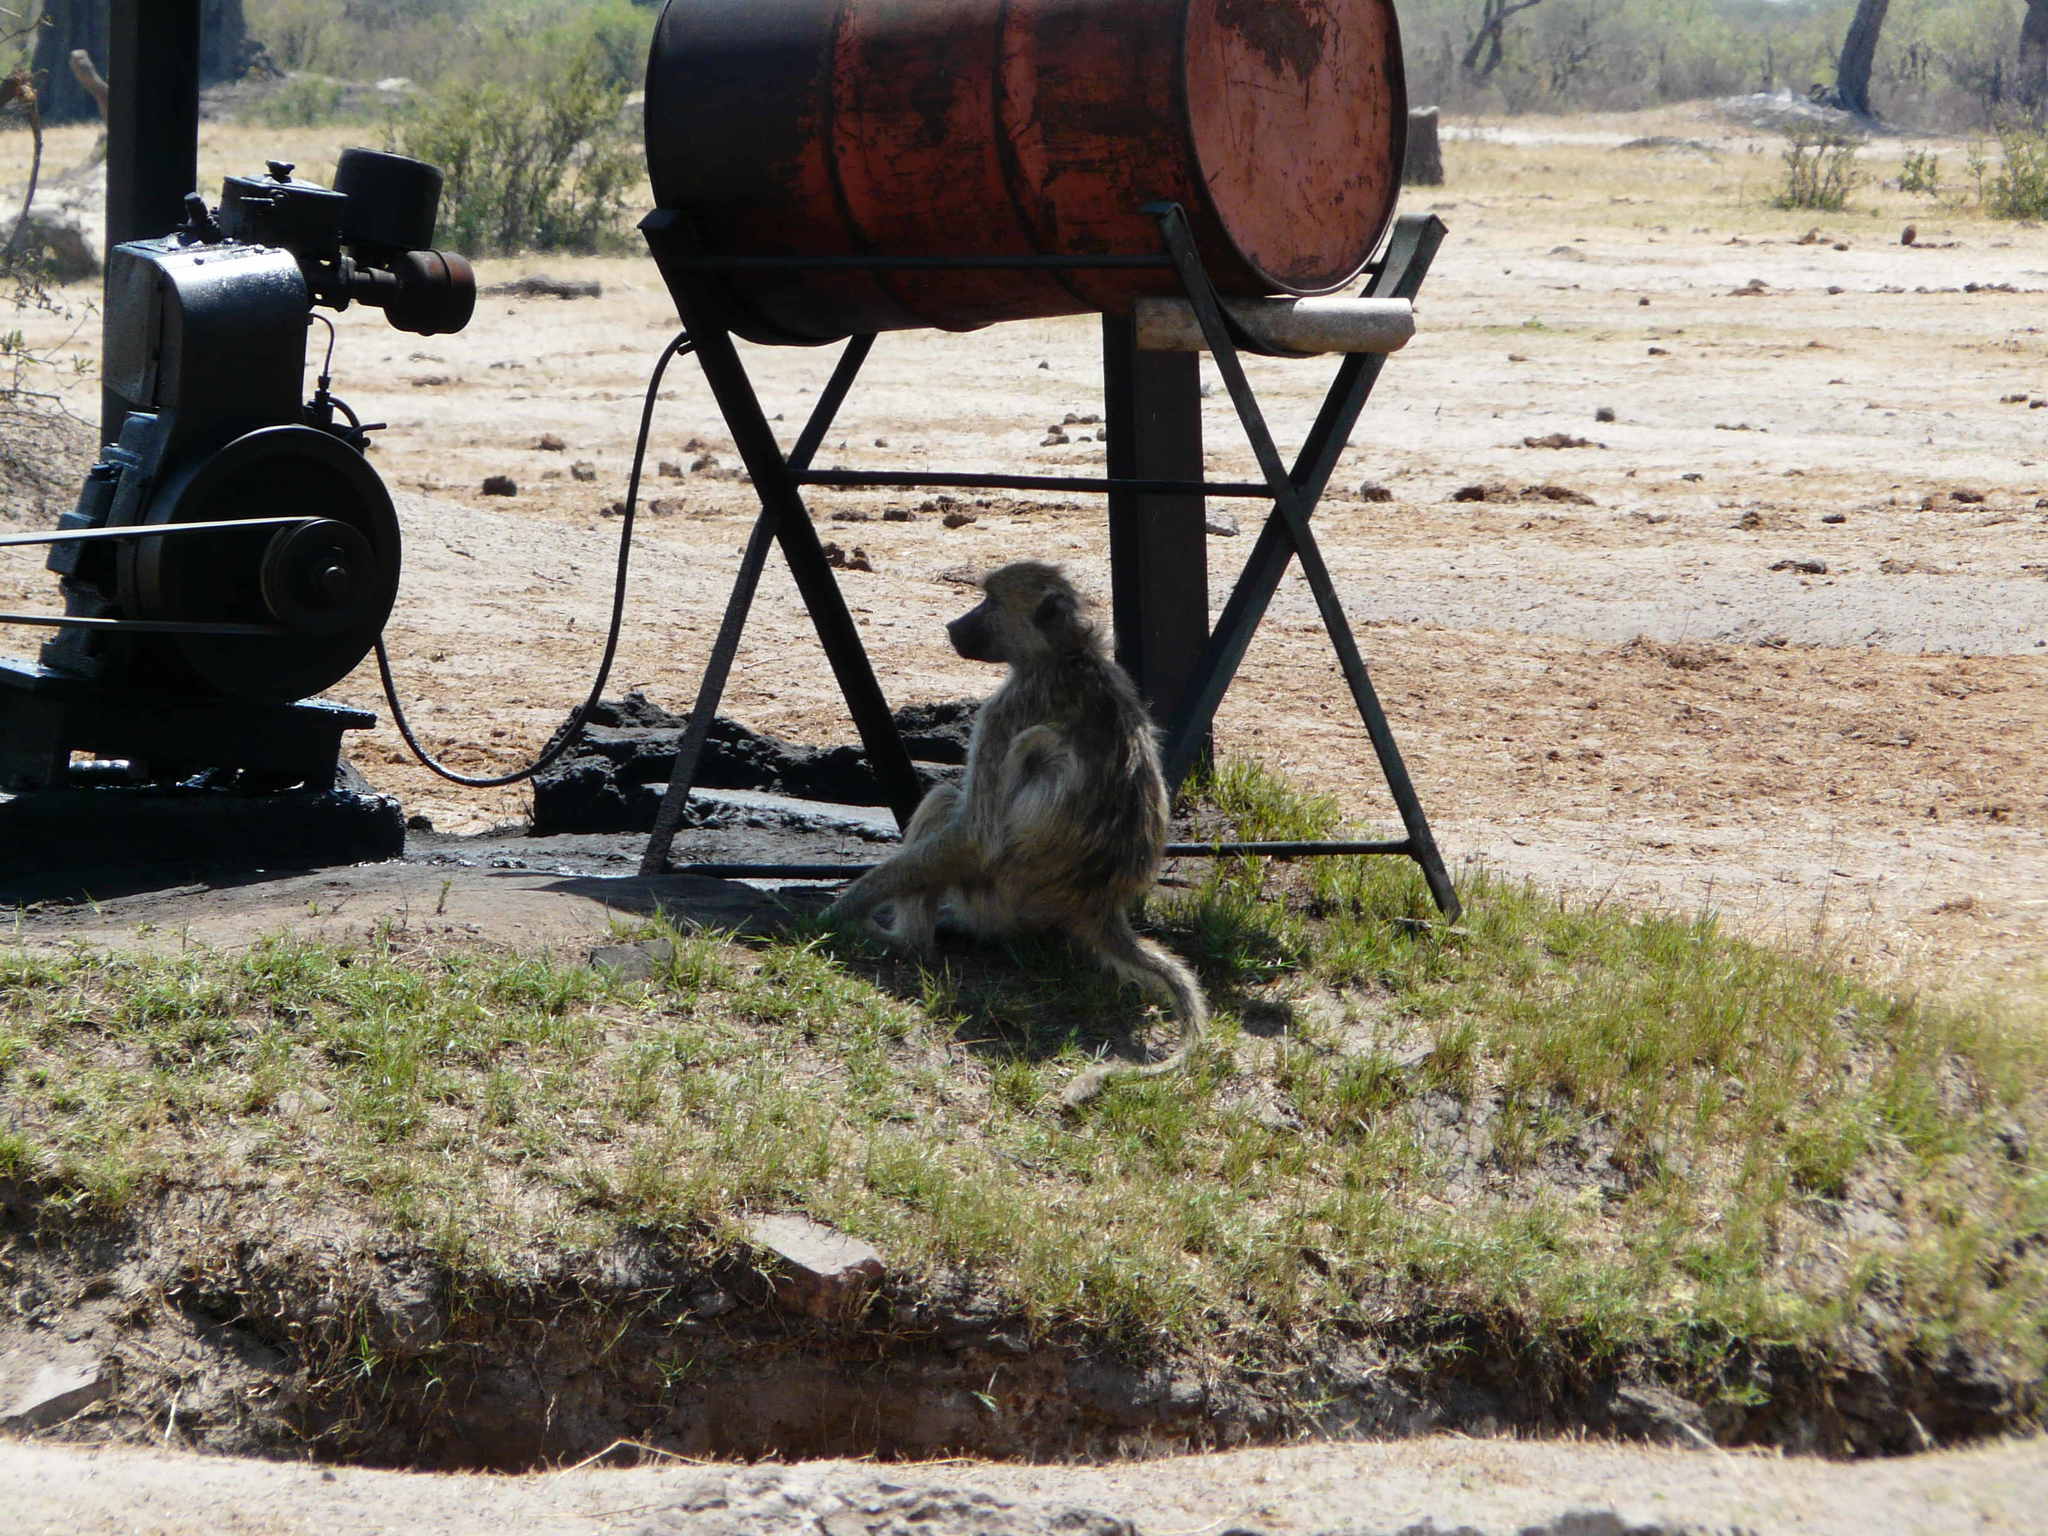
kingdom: Animalia
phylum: Chordata
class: Mammalia
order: Primates
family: Cercopithecidae
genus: Papio
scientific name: Papio ursinus
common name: Chacma baboon
